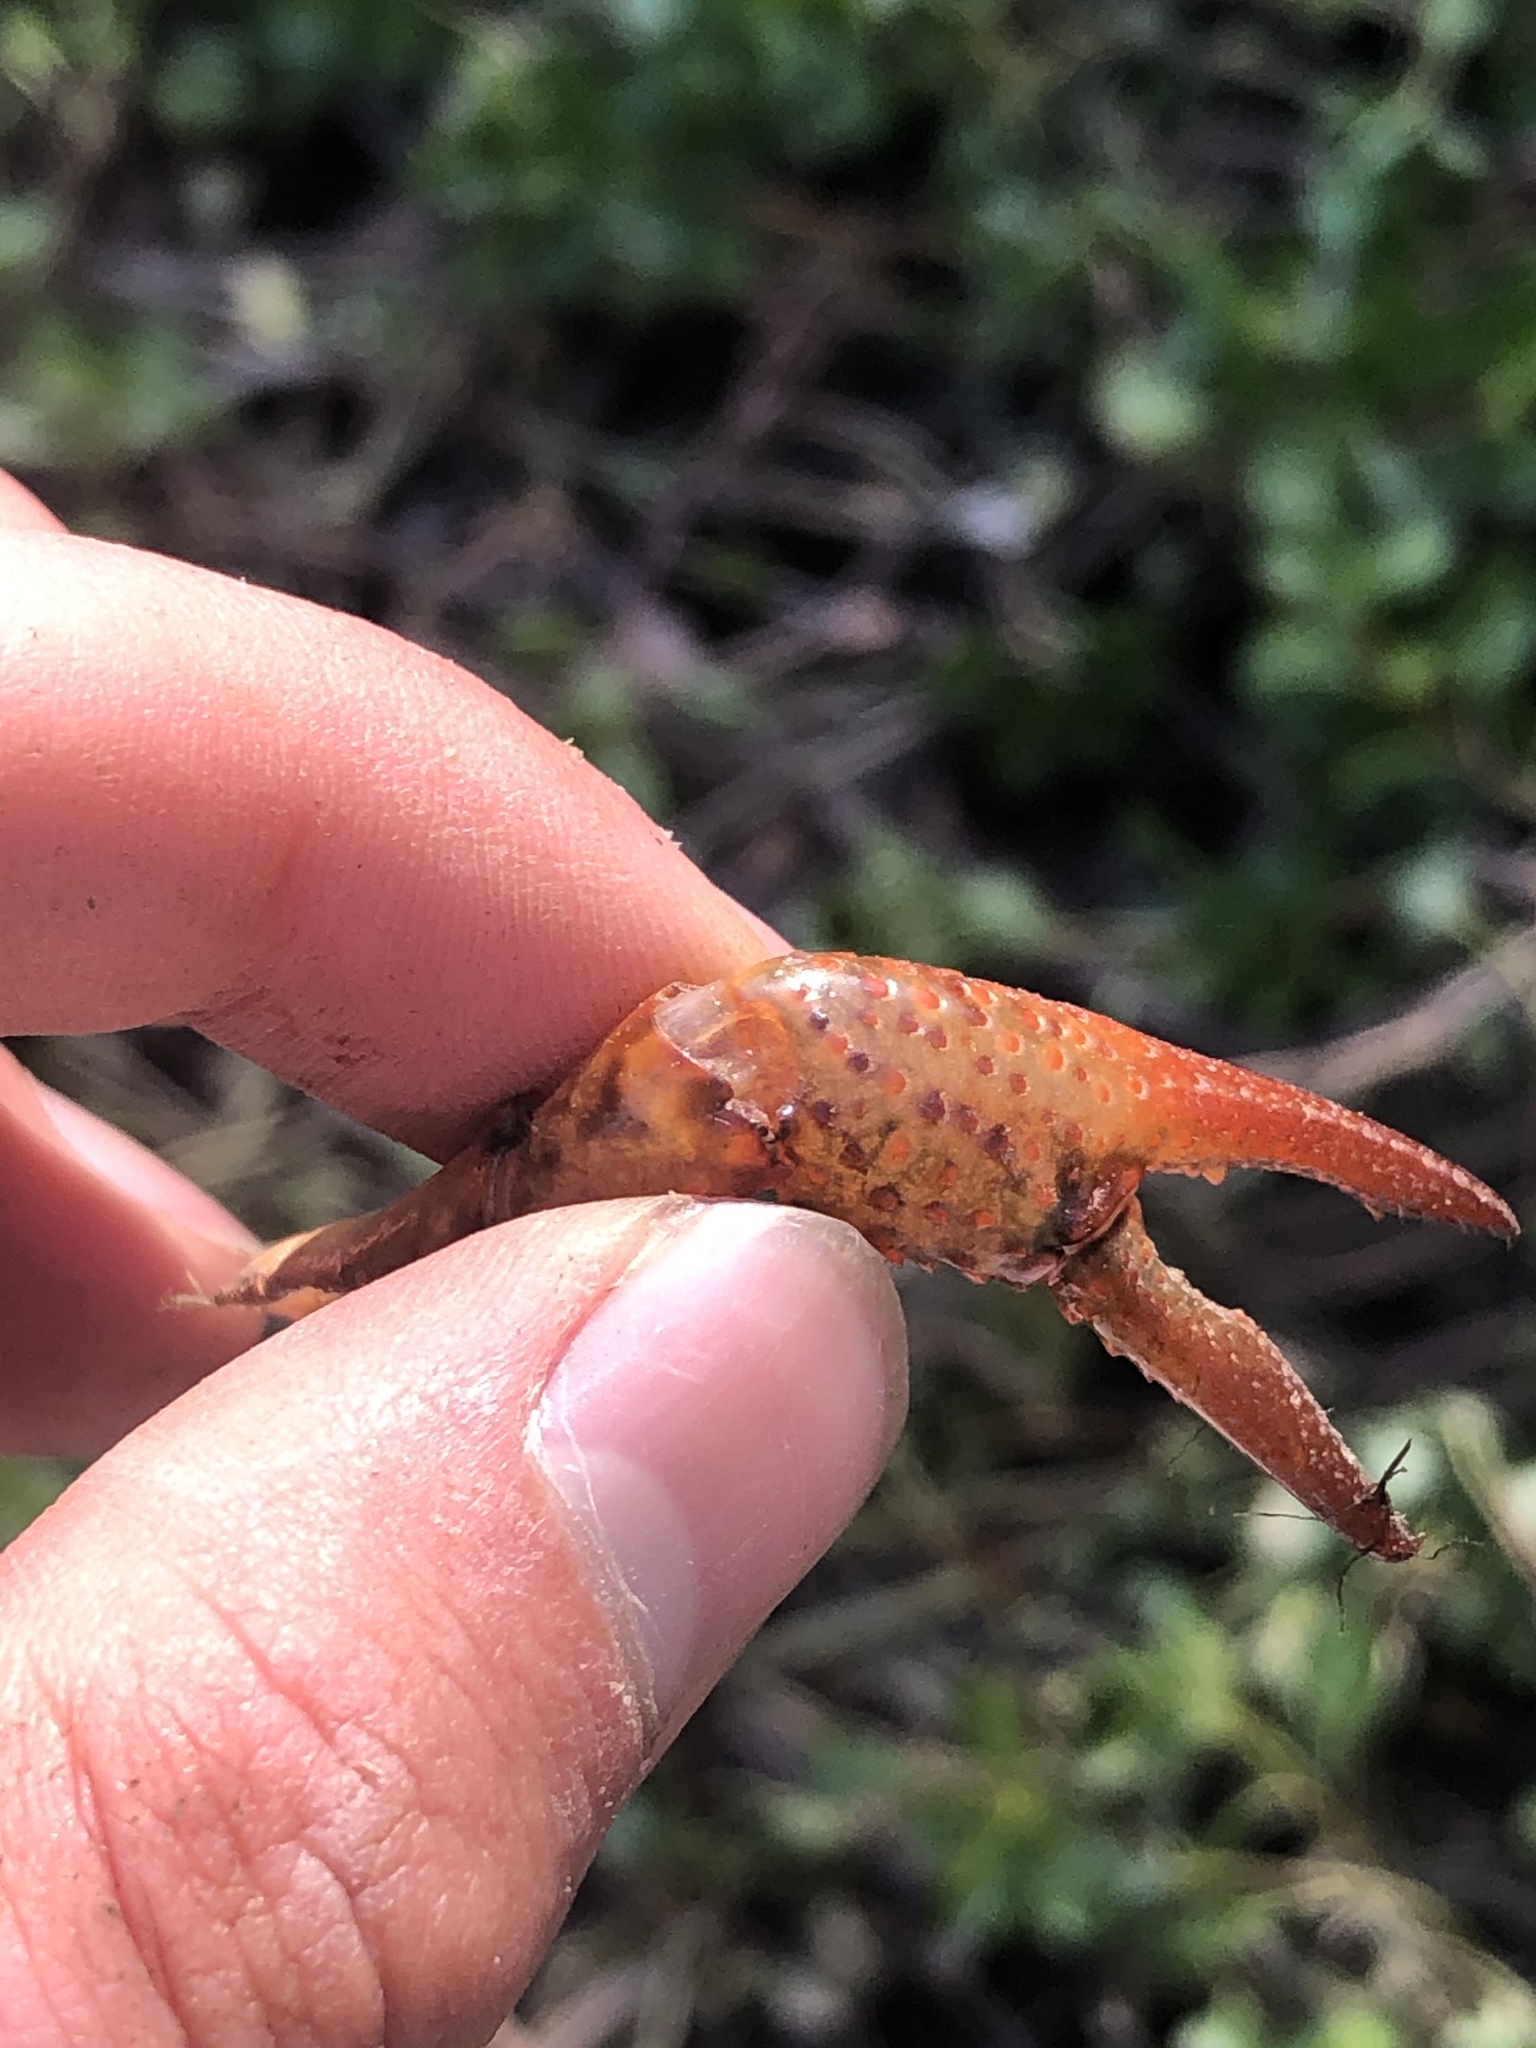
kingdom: Animalia
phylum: Arthropoda
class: Malacostraca
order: Decapoda
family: Cambaridae
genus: Procambarus
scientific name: Procambarus clarkii
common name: Red swamp crayfish
